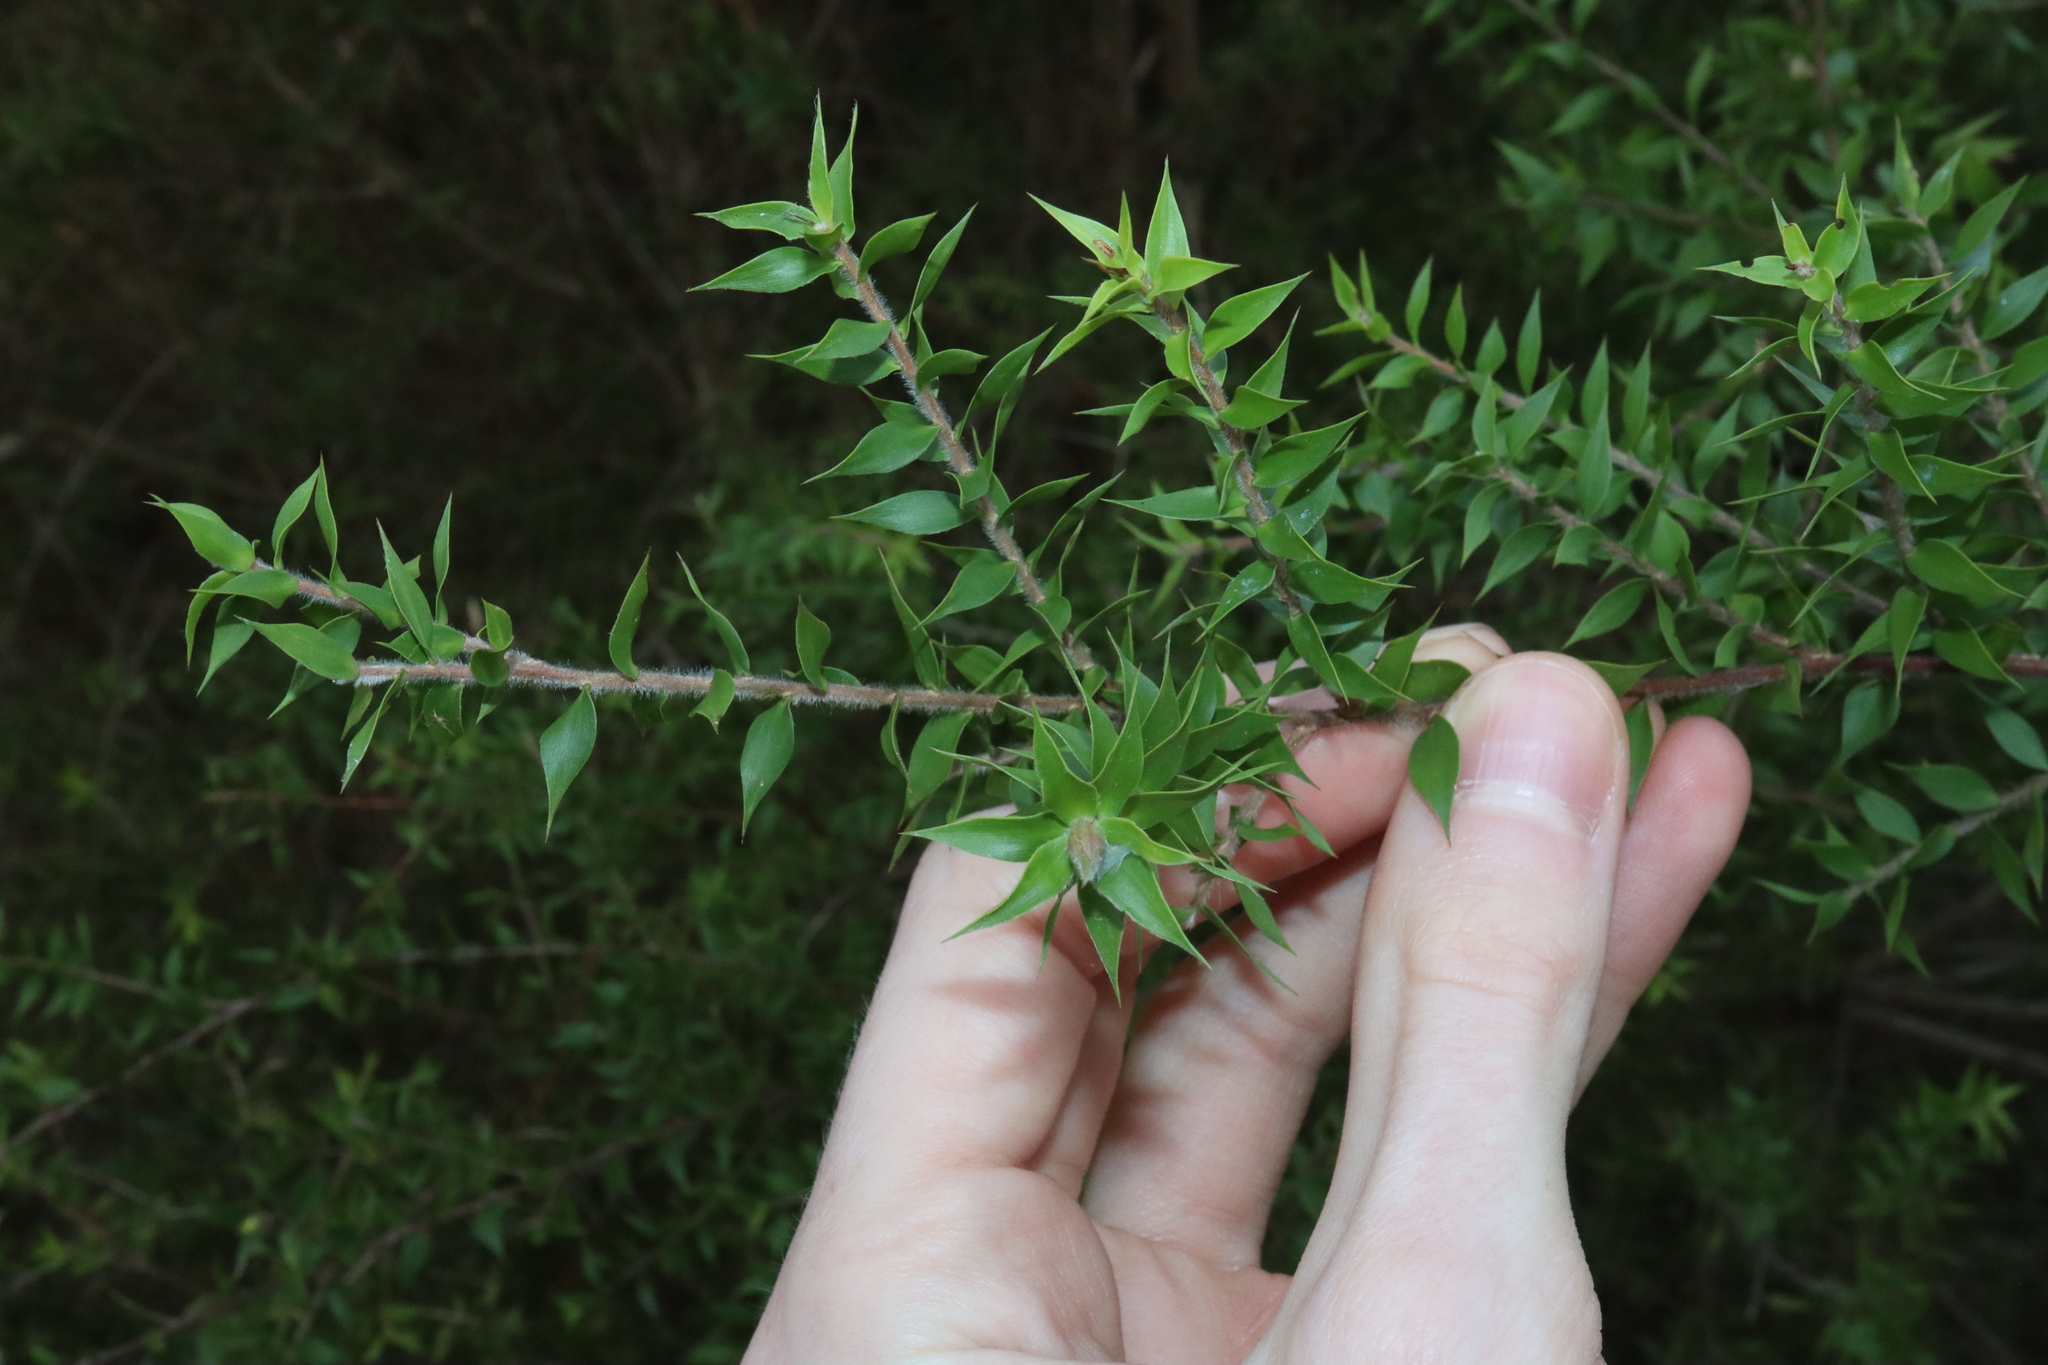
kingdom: Plantae
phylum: Tracheophyta
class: Magnoliopsida
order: Myrtales
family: Myrtaceae
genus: Melaleuca
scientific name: Melaleuca styphelioides
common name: Prickly paperbark
